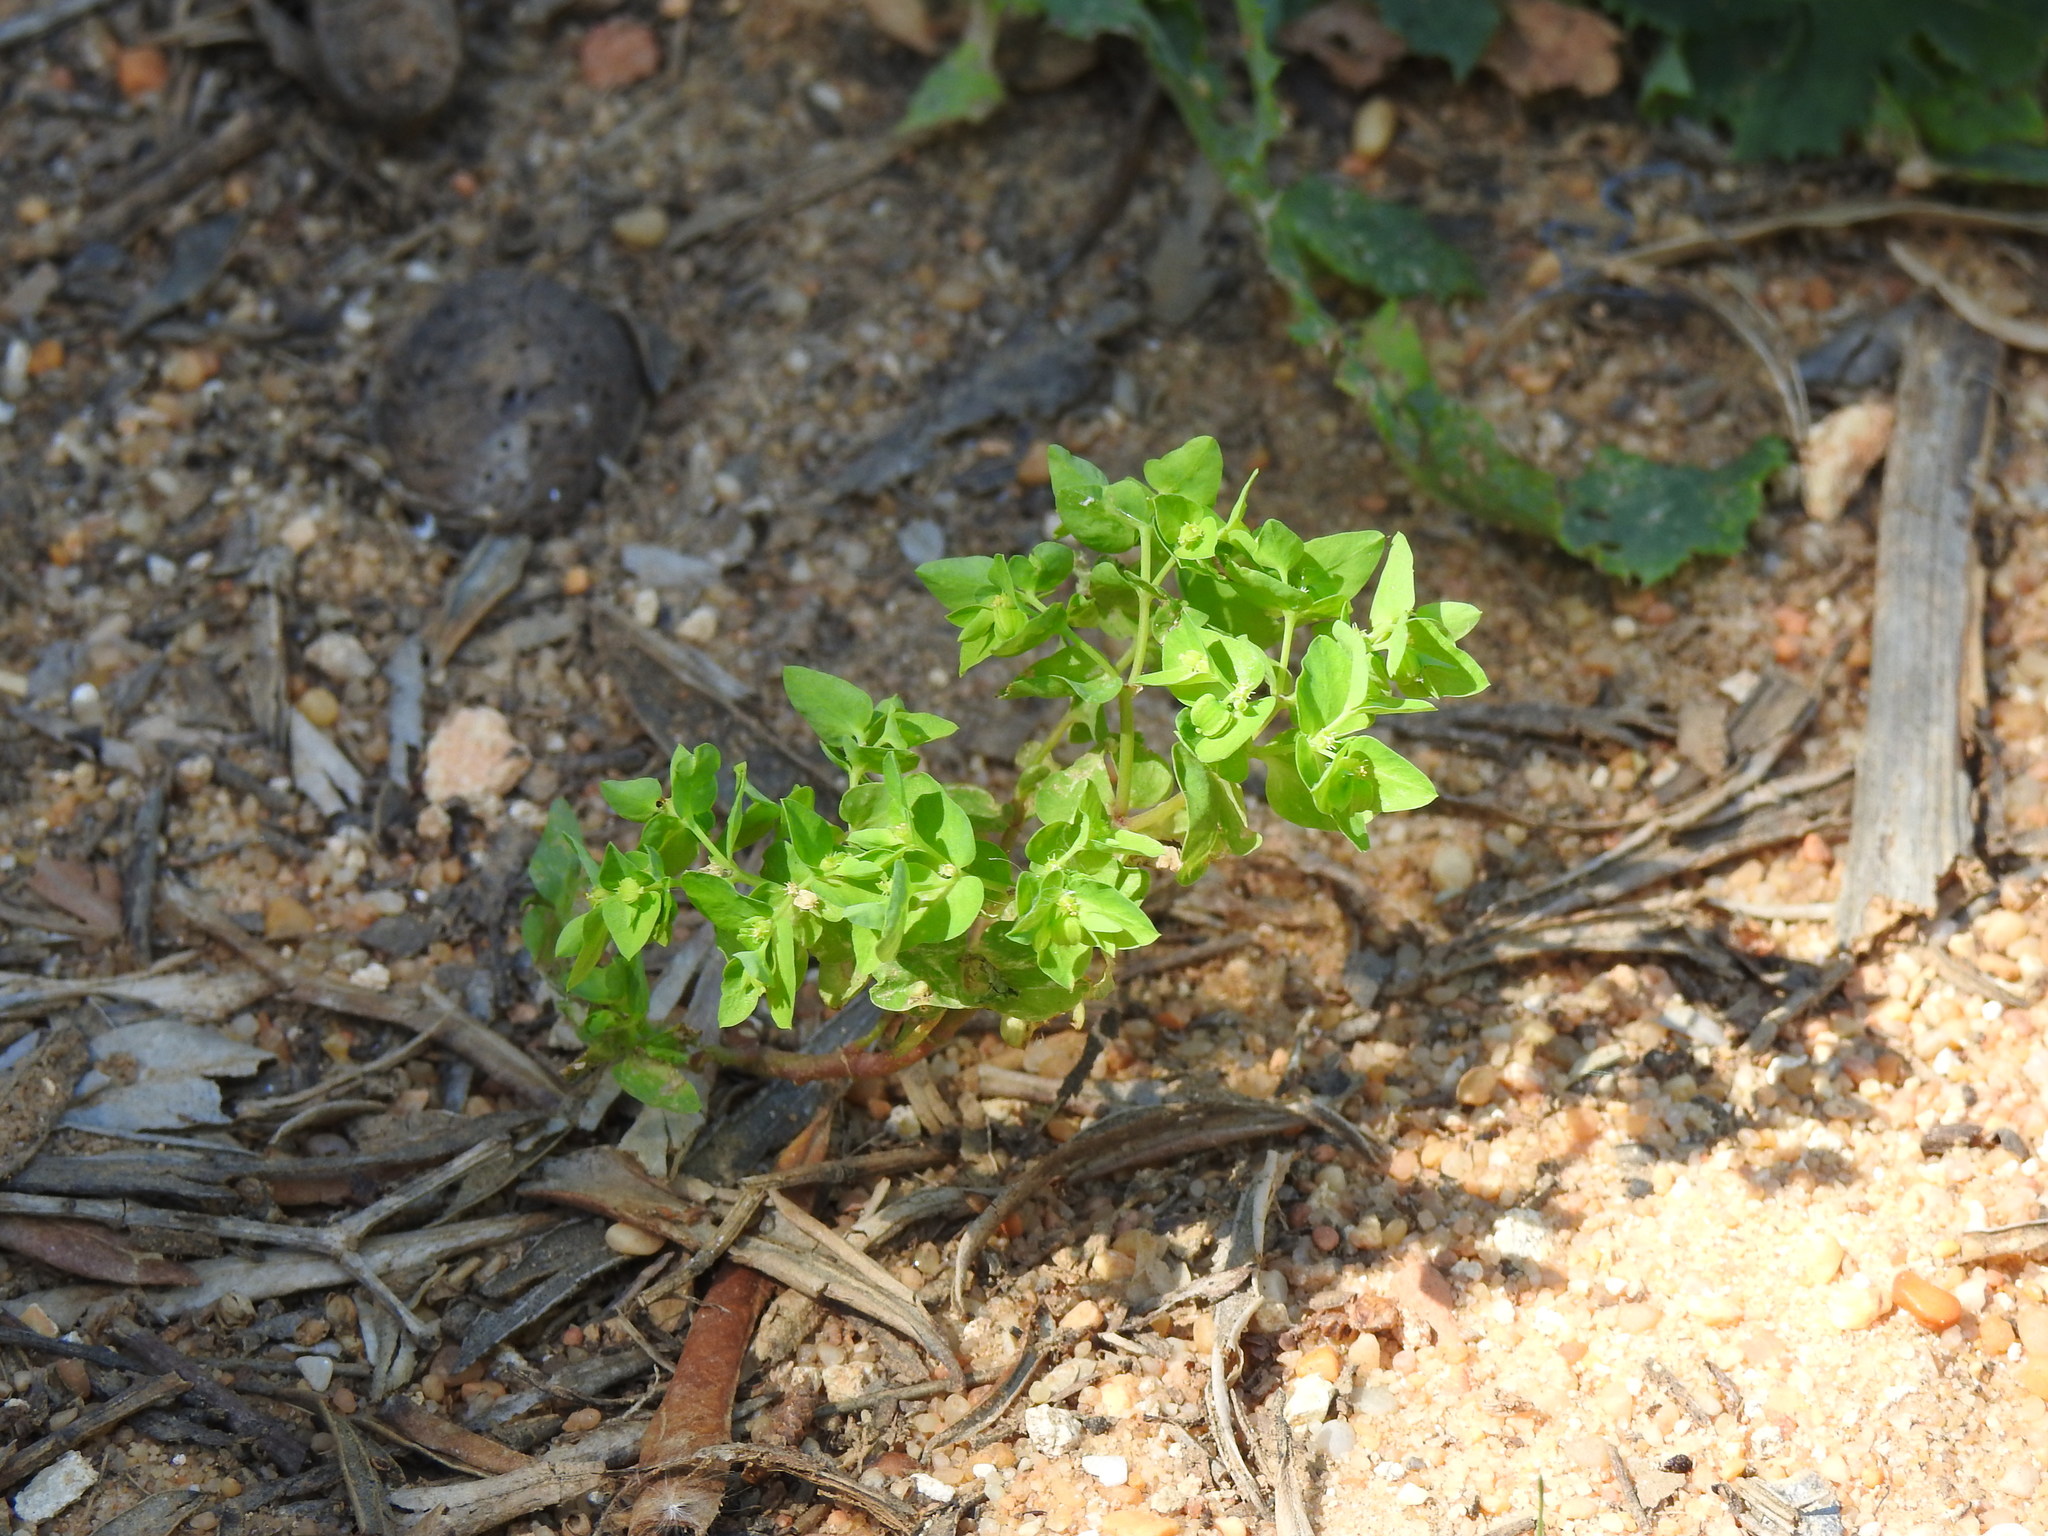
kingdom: Plantae
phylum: Tracheophyta
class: Magnoliopsida
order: Malpighiales
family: Euphorbiaceae
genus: Euphorbia
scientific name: Euphorbia peplus
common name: Petty spurge
